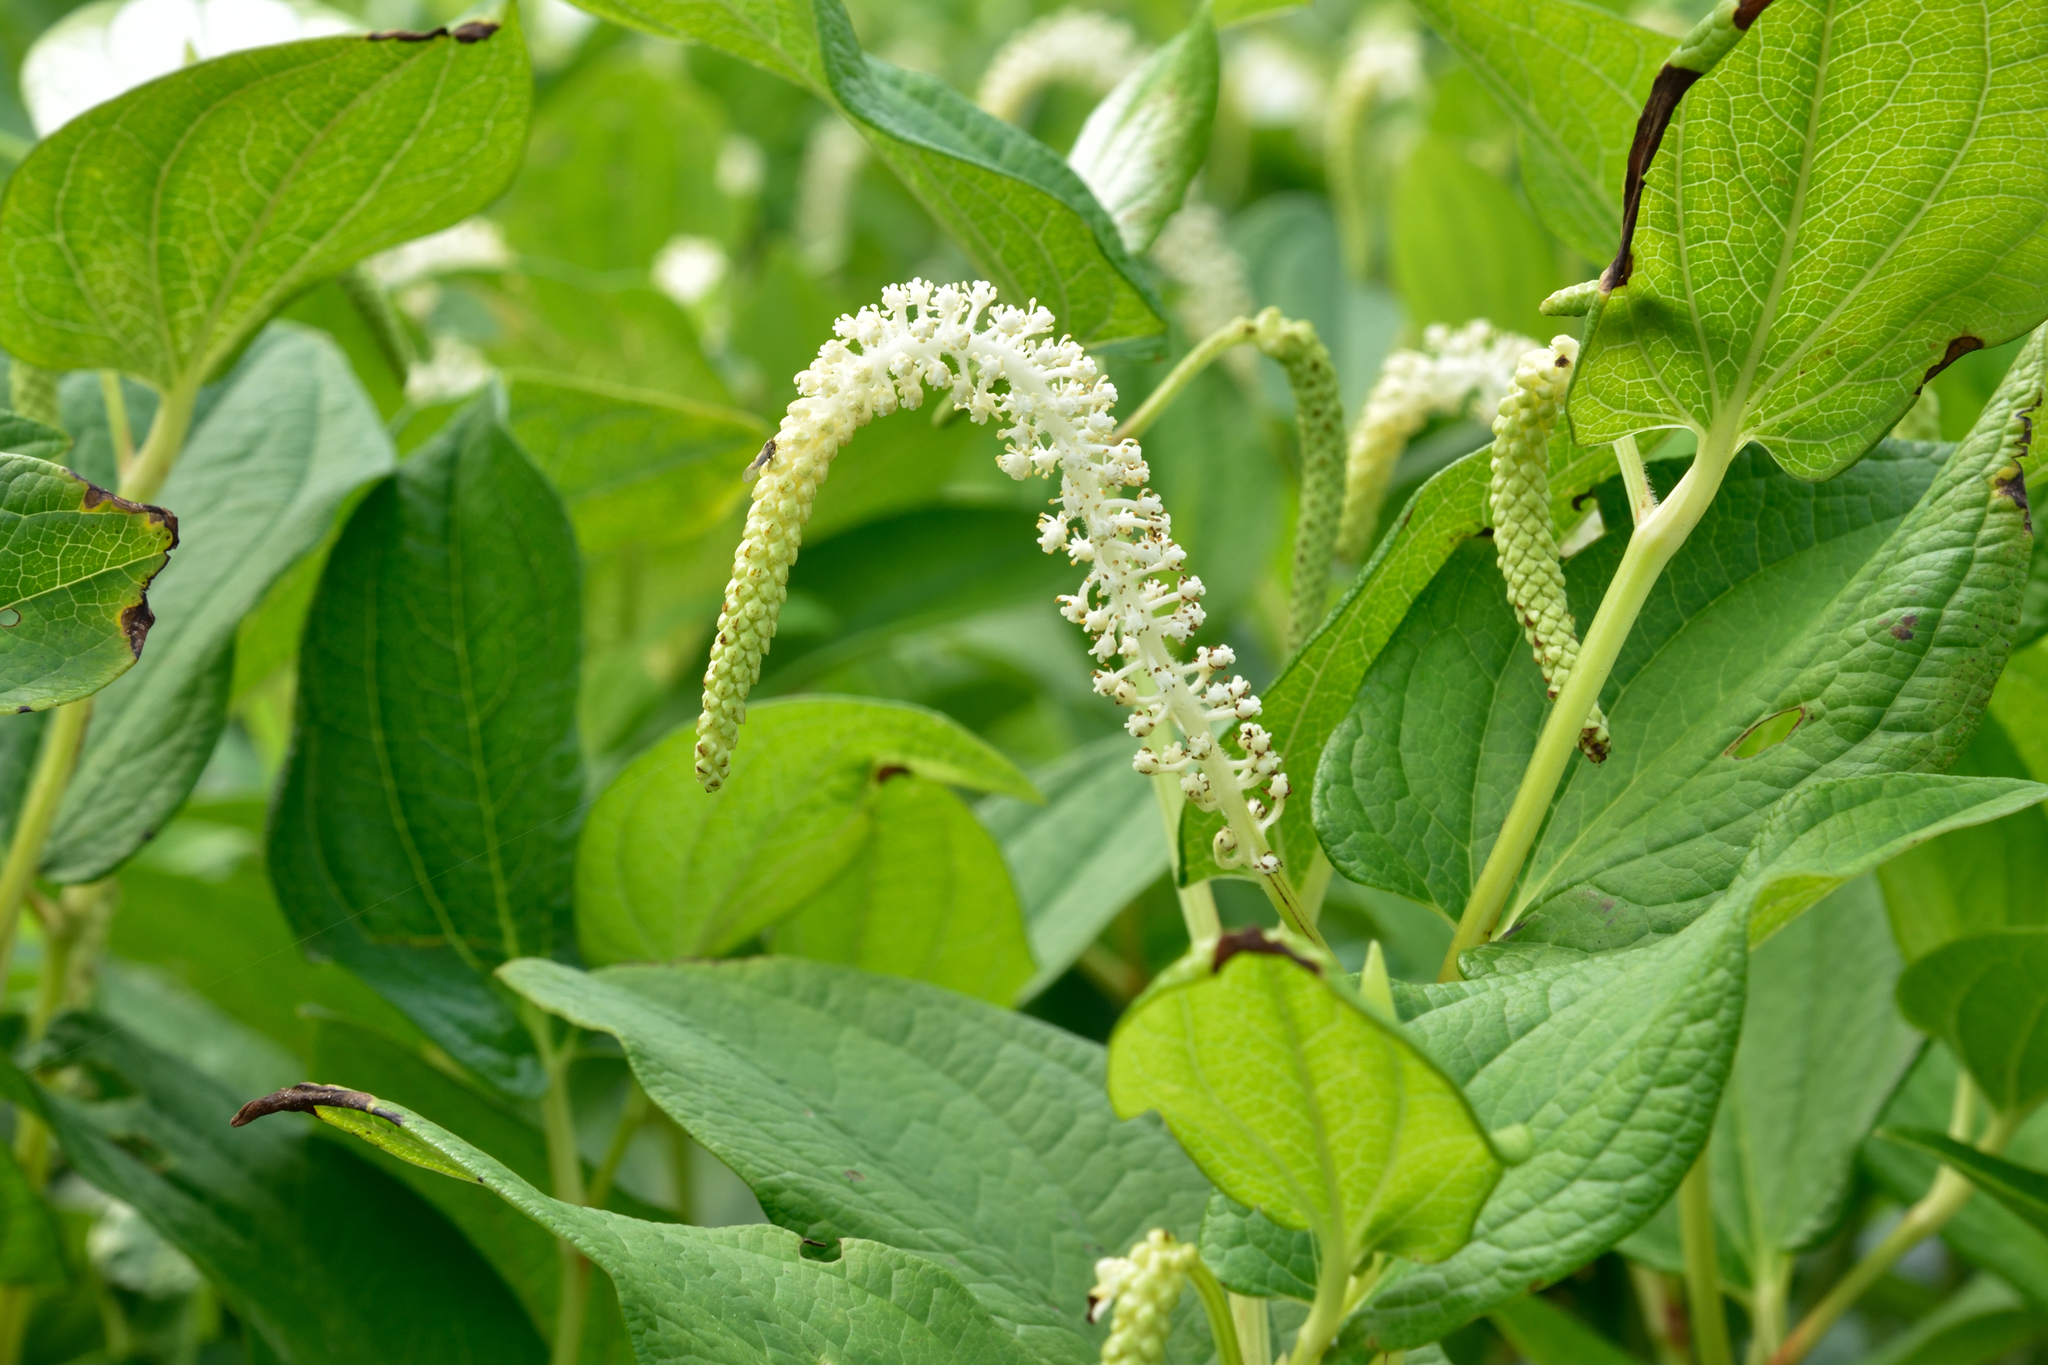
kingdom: Plantae
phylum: Tracheophyta
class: Magnoliopsida
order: Piperales
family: Saururaceae
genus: Saururus
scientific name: Saururus chinensis
